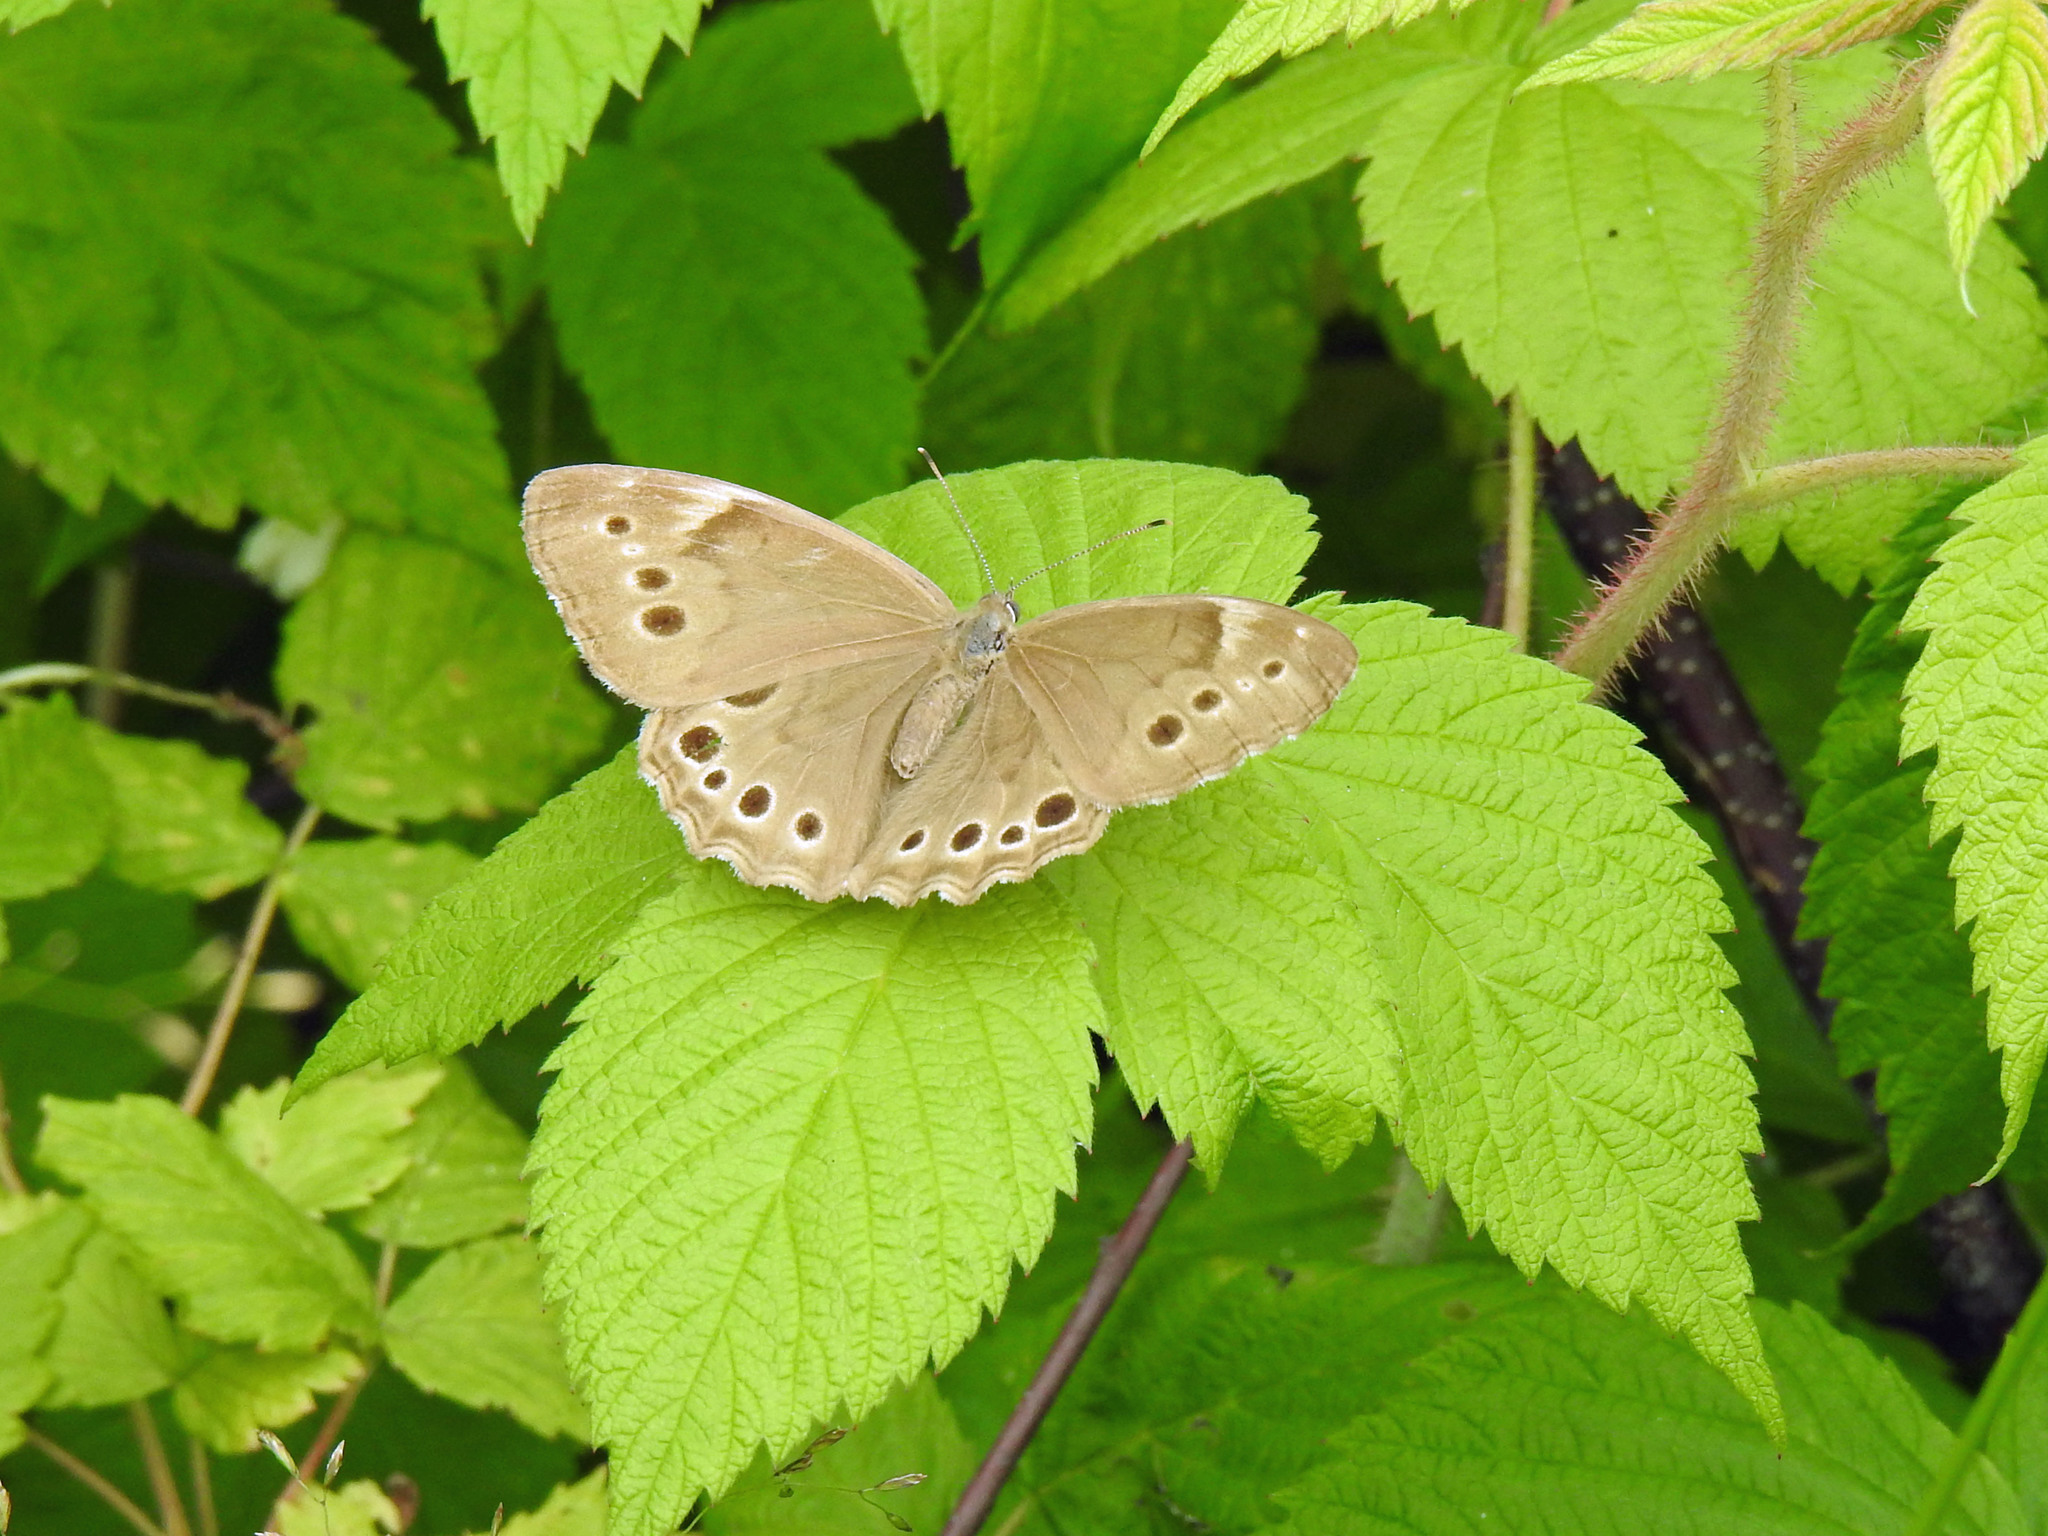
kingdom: Animalia
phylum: Arthropoda
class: Insecta
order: Lepidoptera
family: Nymphalidae
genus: Lethe
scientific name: Lethe anthedon
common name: Northern pearly-eye
